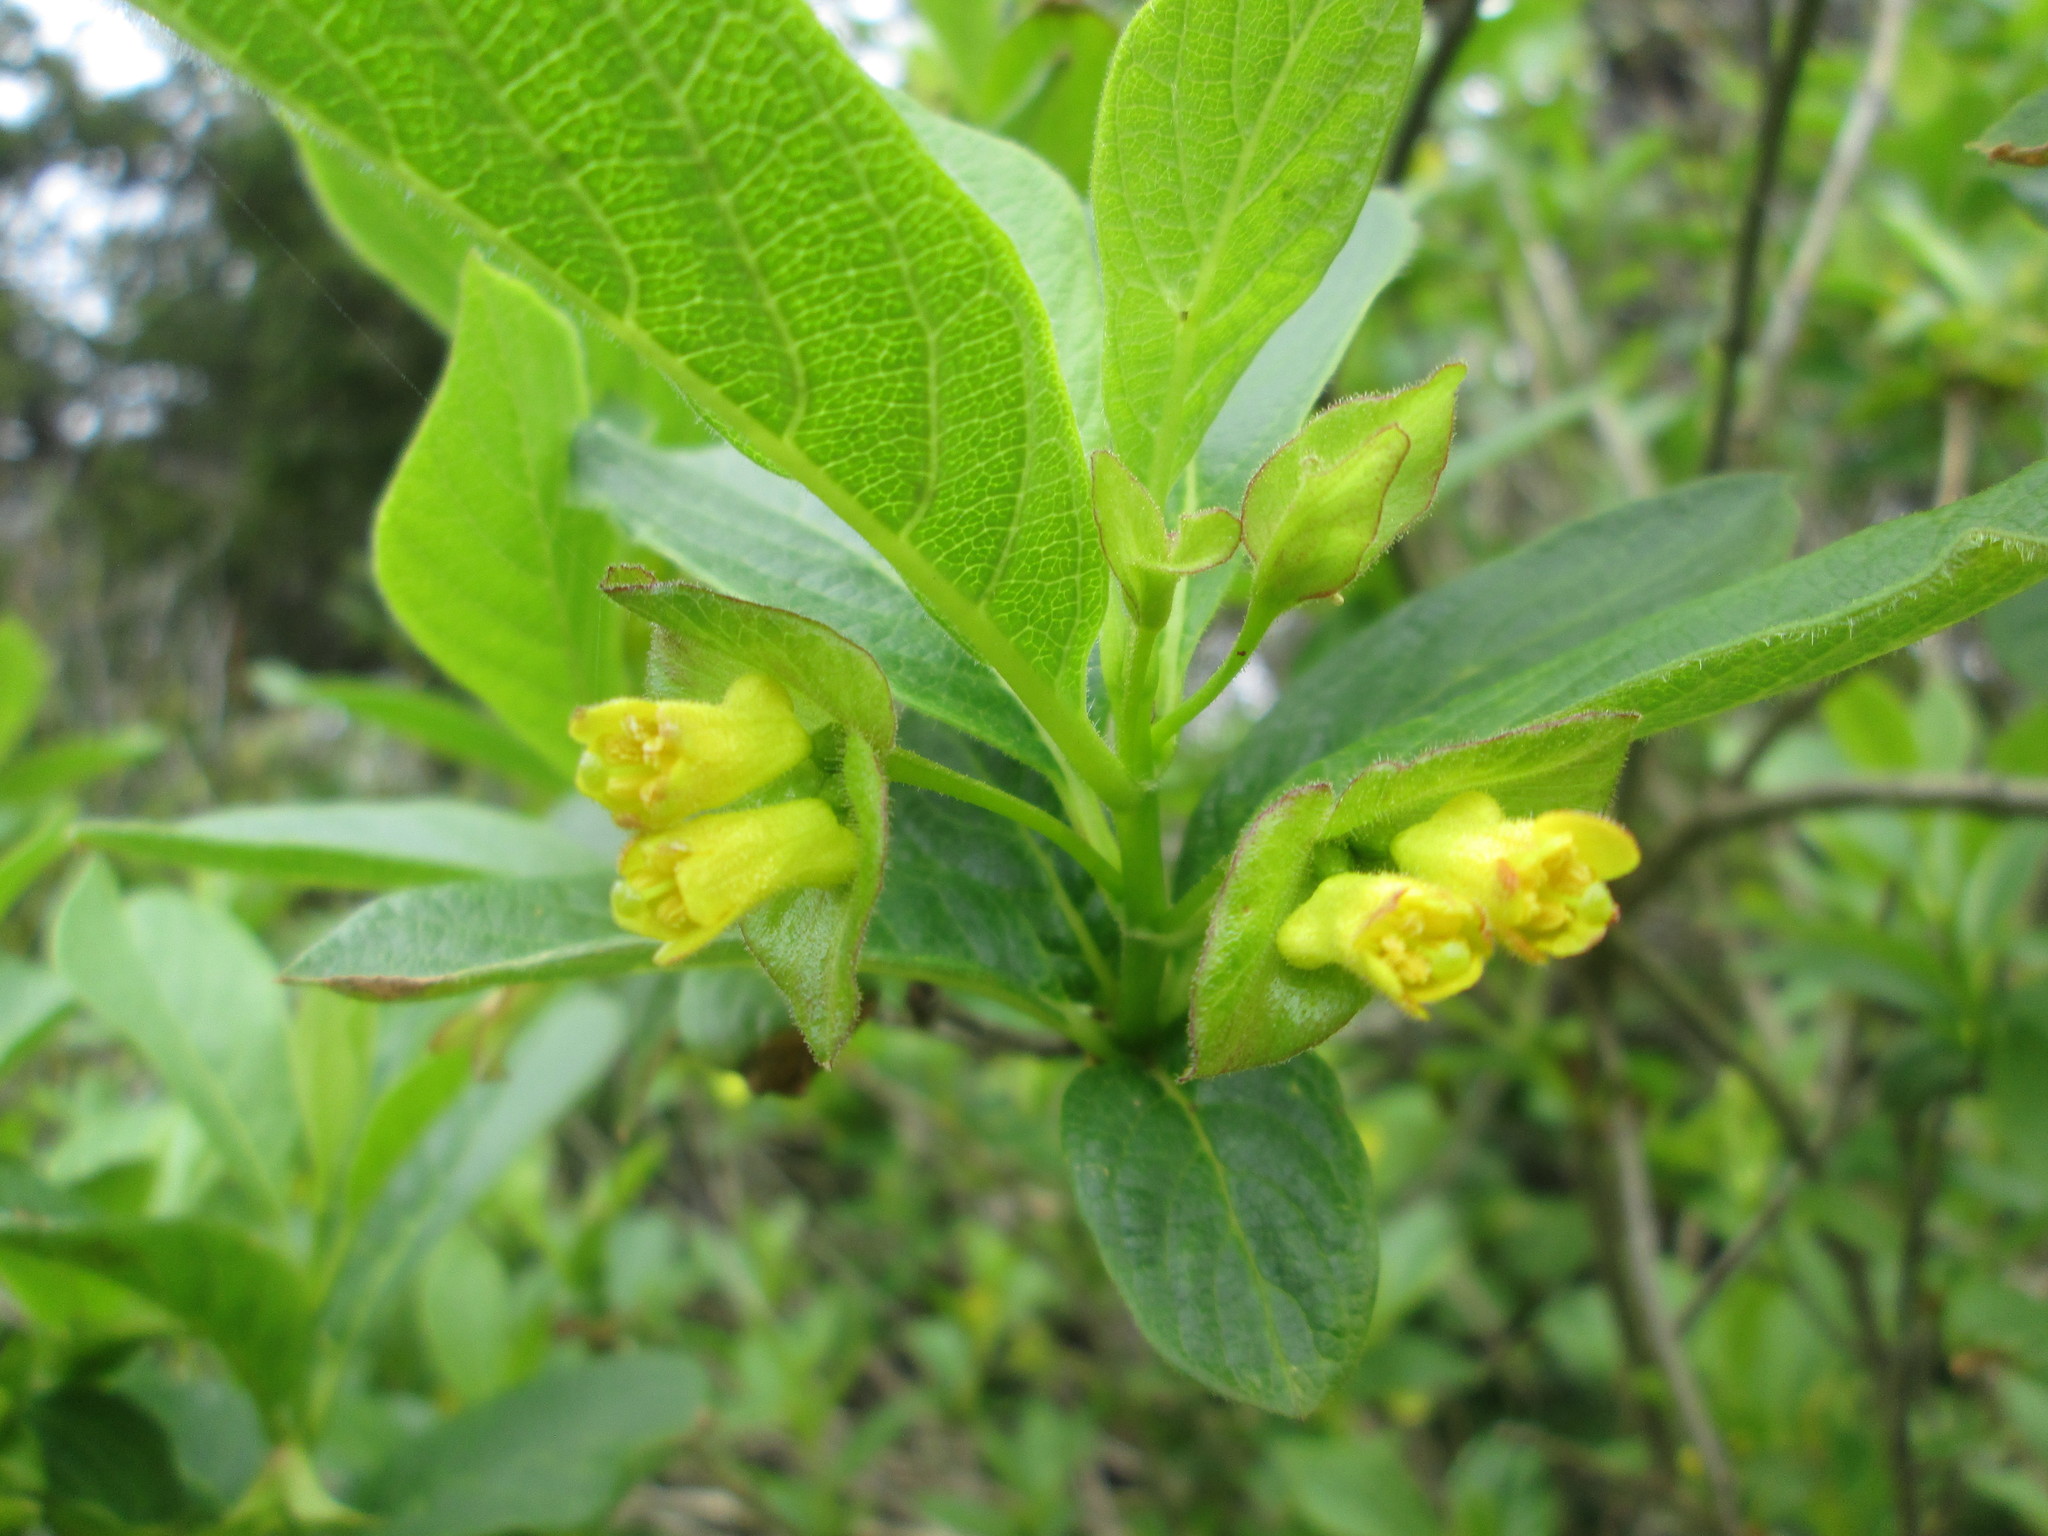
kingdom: Plantae
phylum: Tracheophyta
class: Magnoliopsida
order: Dipsacales
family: Caprifoliaceae
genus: Lonicera
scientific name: Lonicera involucrata
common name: Californian honeysuckle
